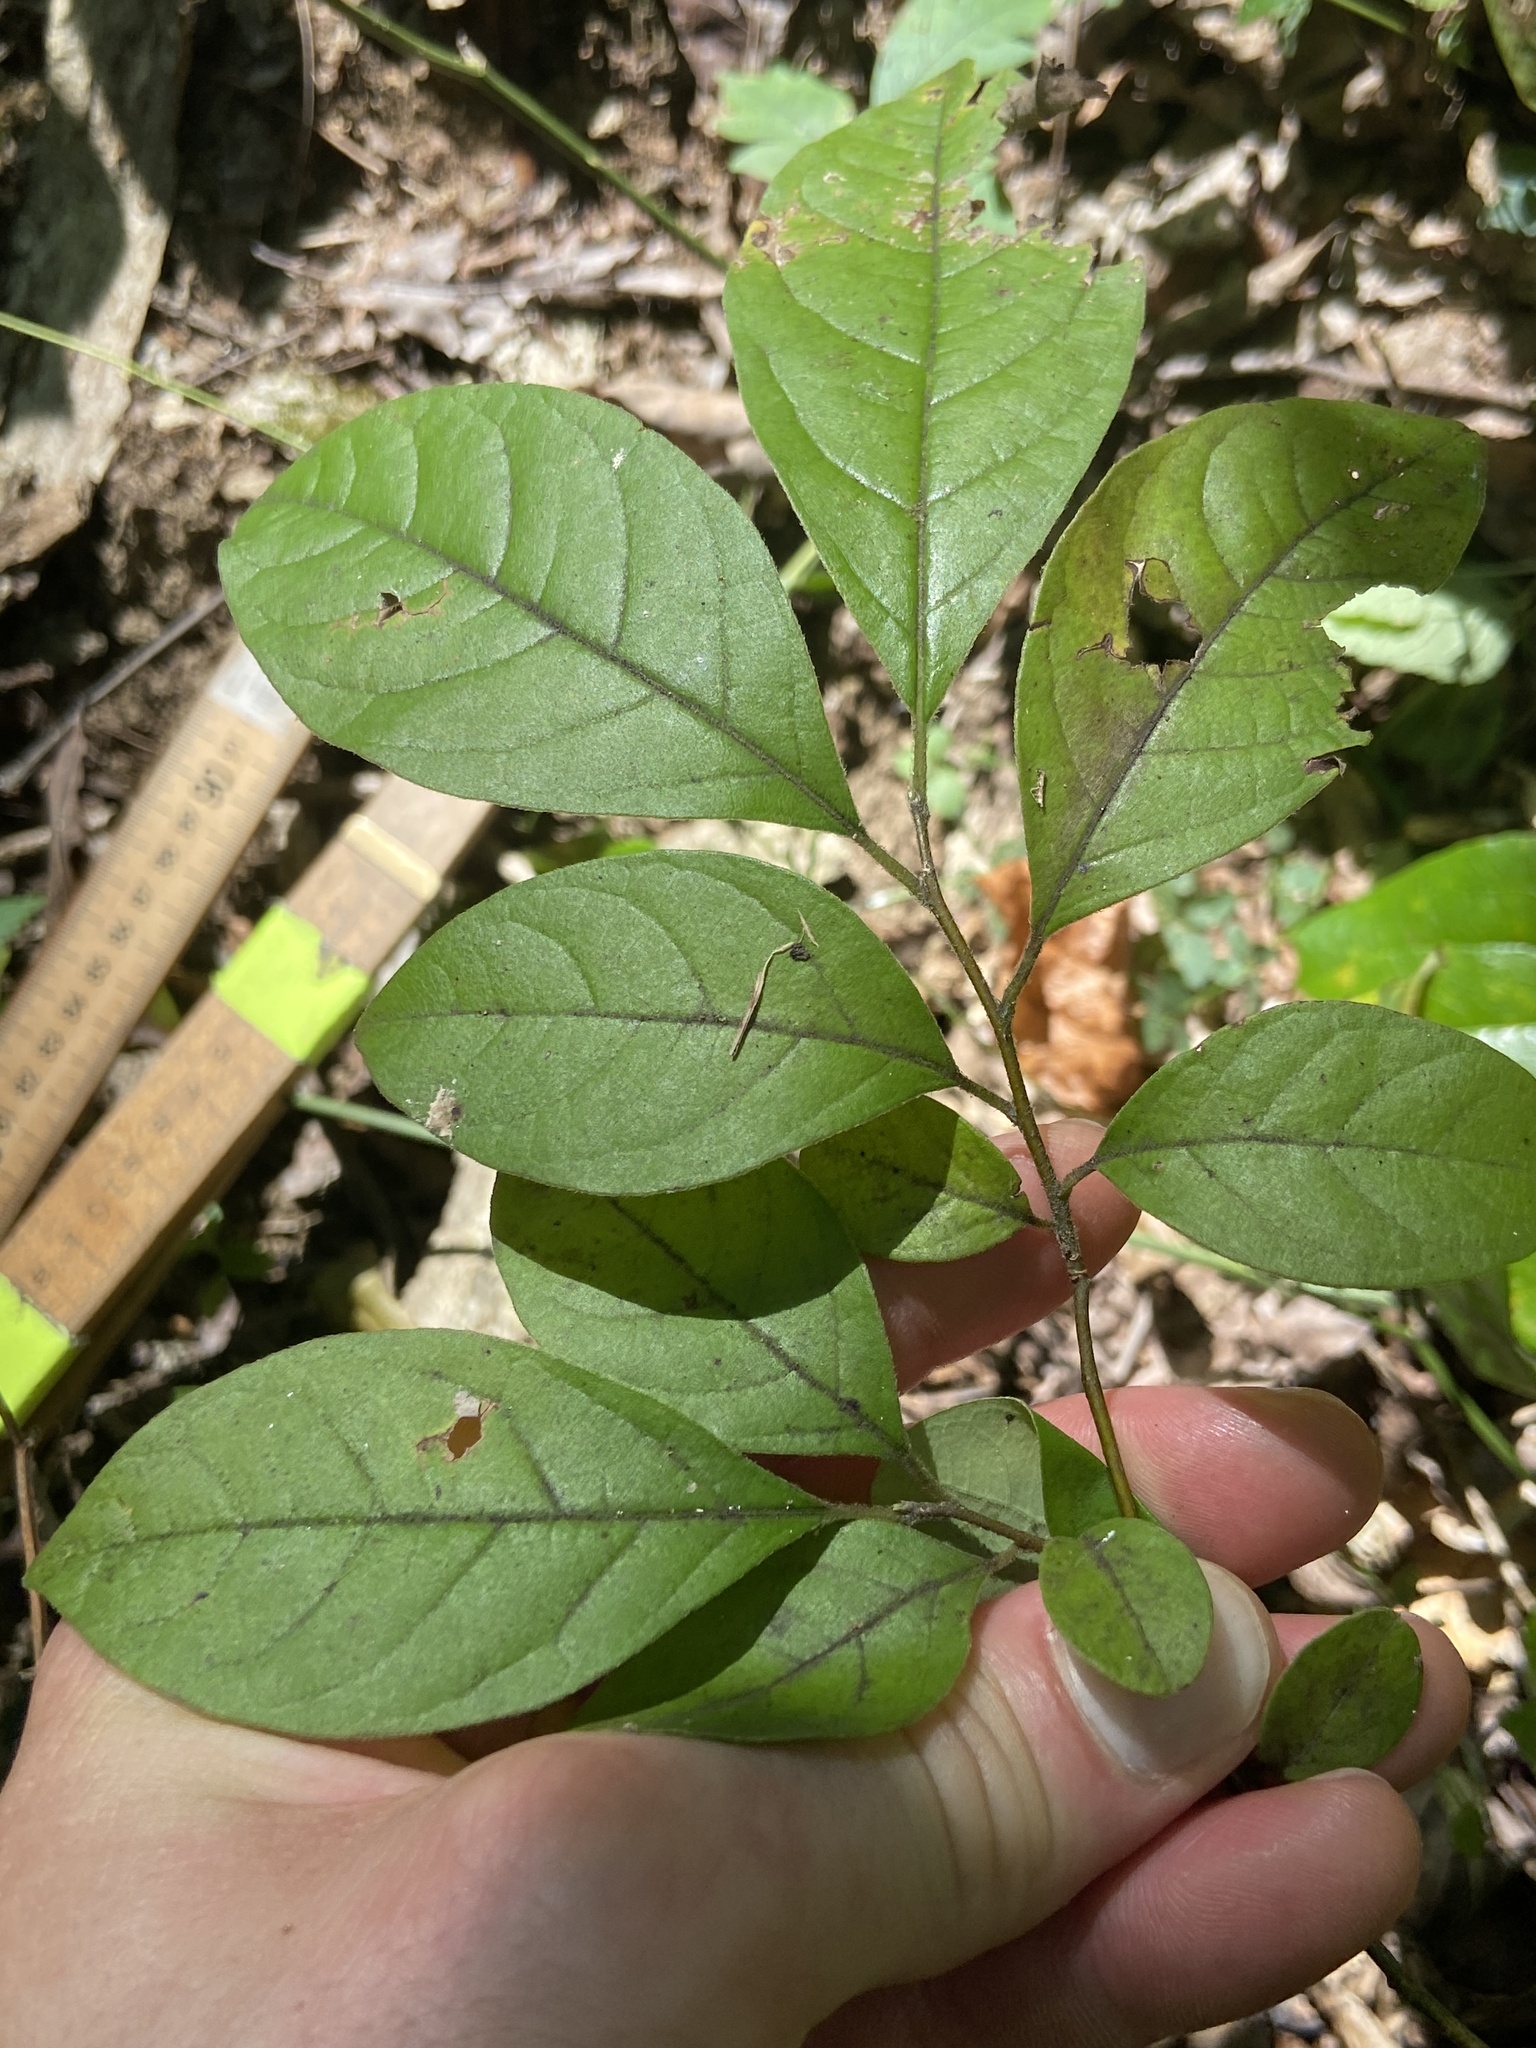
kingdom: Plantae
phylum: Tracheophyta
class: Magnoliopsida
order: Laurales
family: Lauraceae
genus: Lindera
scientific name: Lindera benzoin
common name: Spicebush
